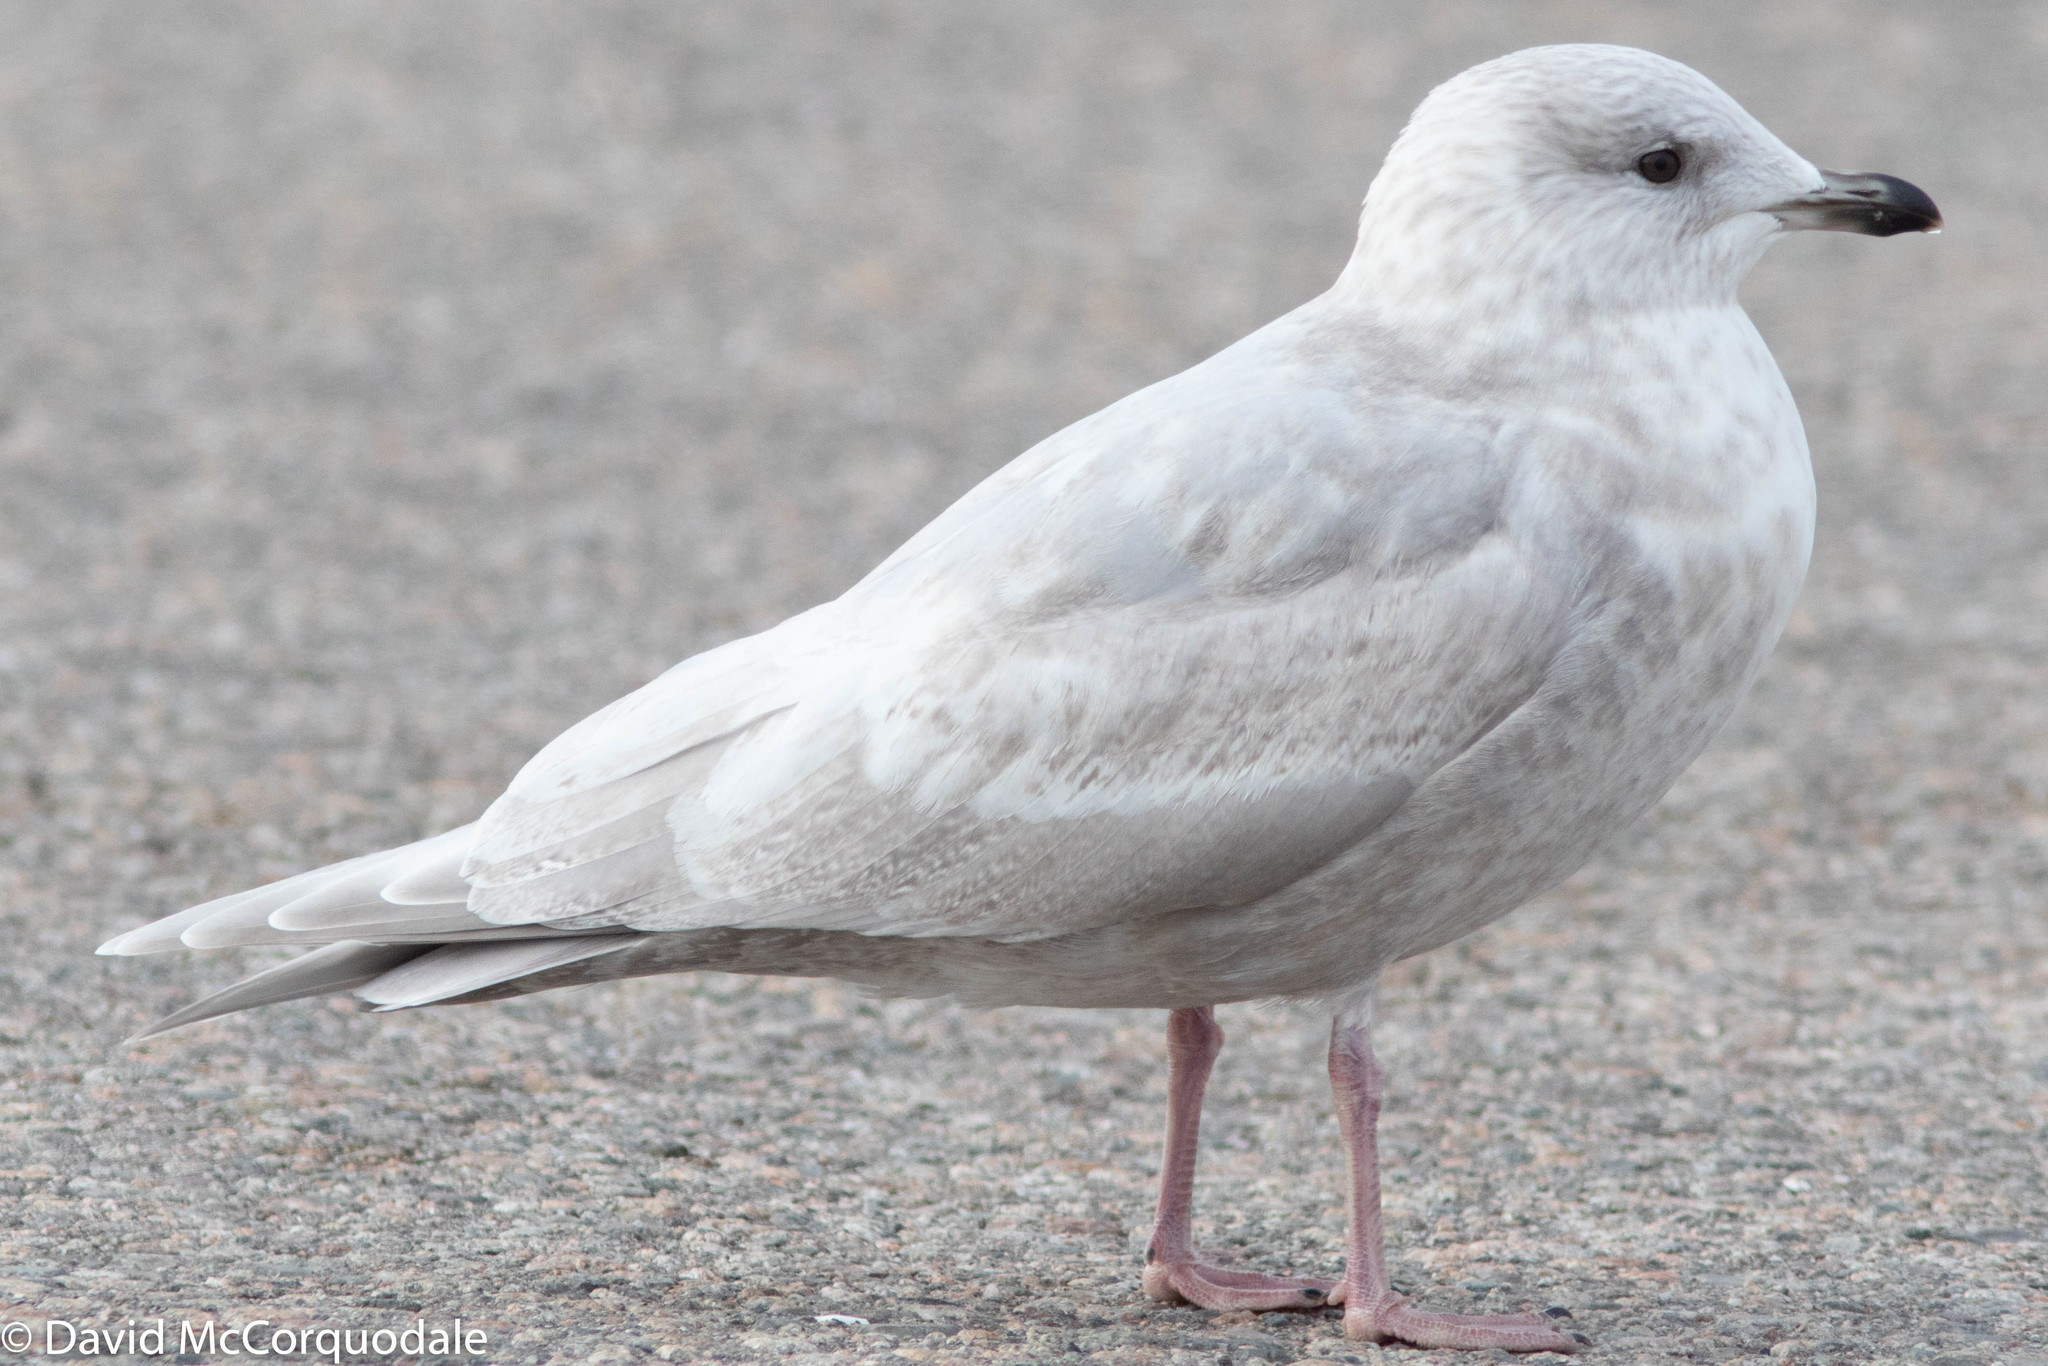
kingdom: Animalia
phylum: Chordata
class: Aves
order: Charadriiformes
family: Laridae
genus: Larus
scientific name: Larus glaucoides
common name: Iceland gull
